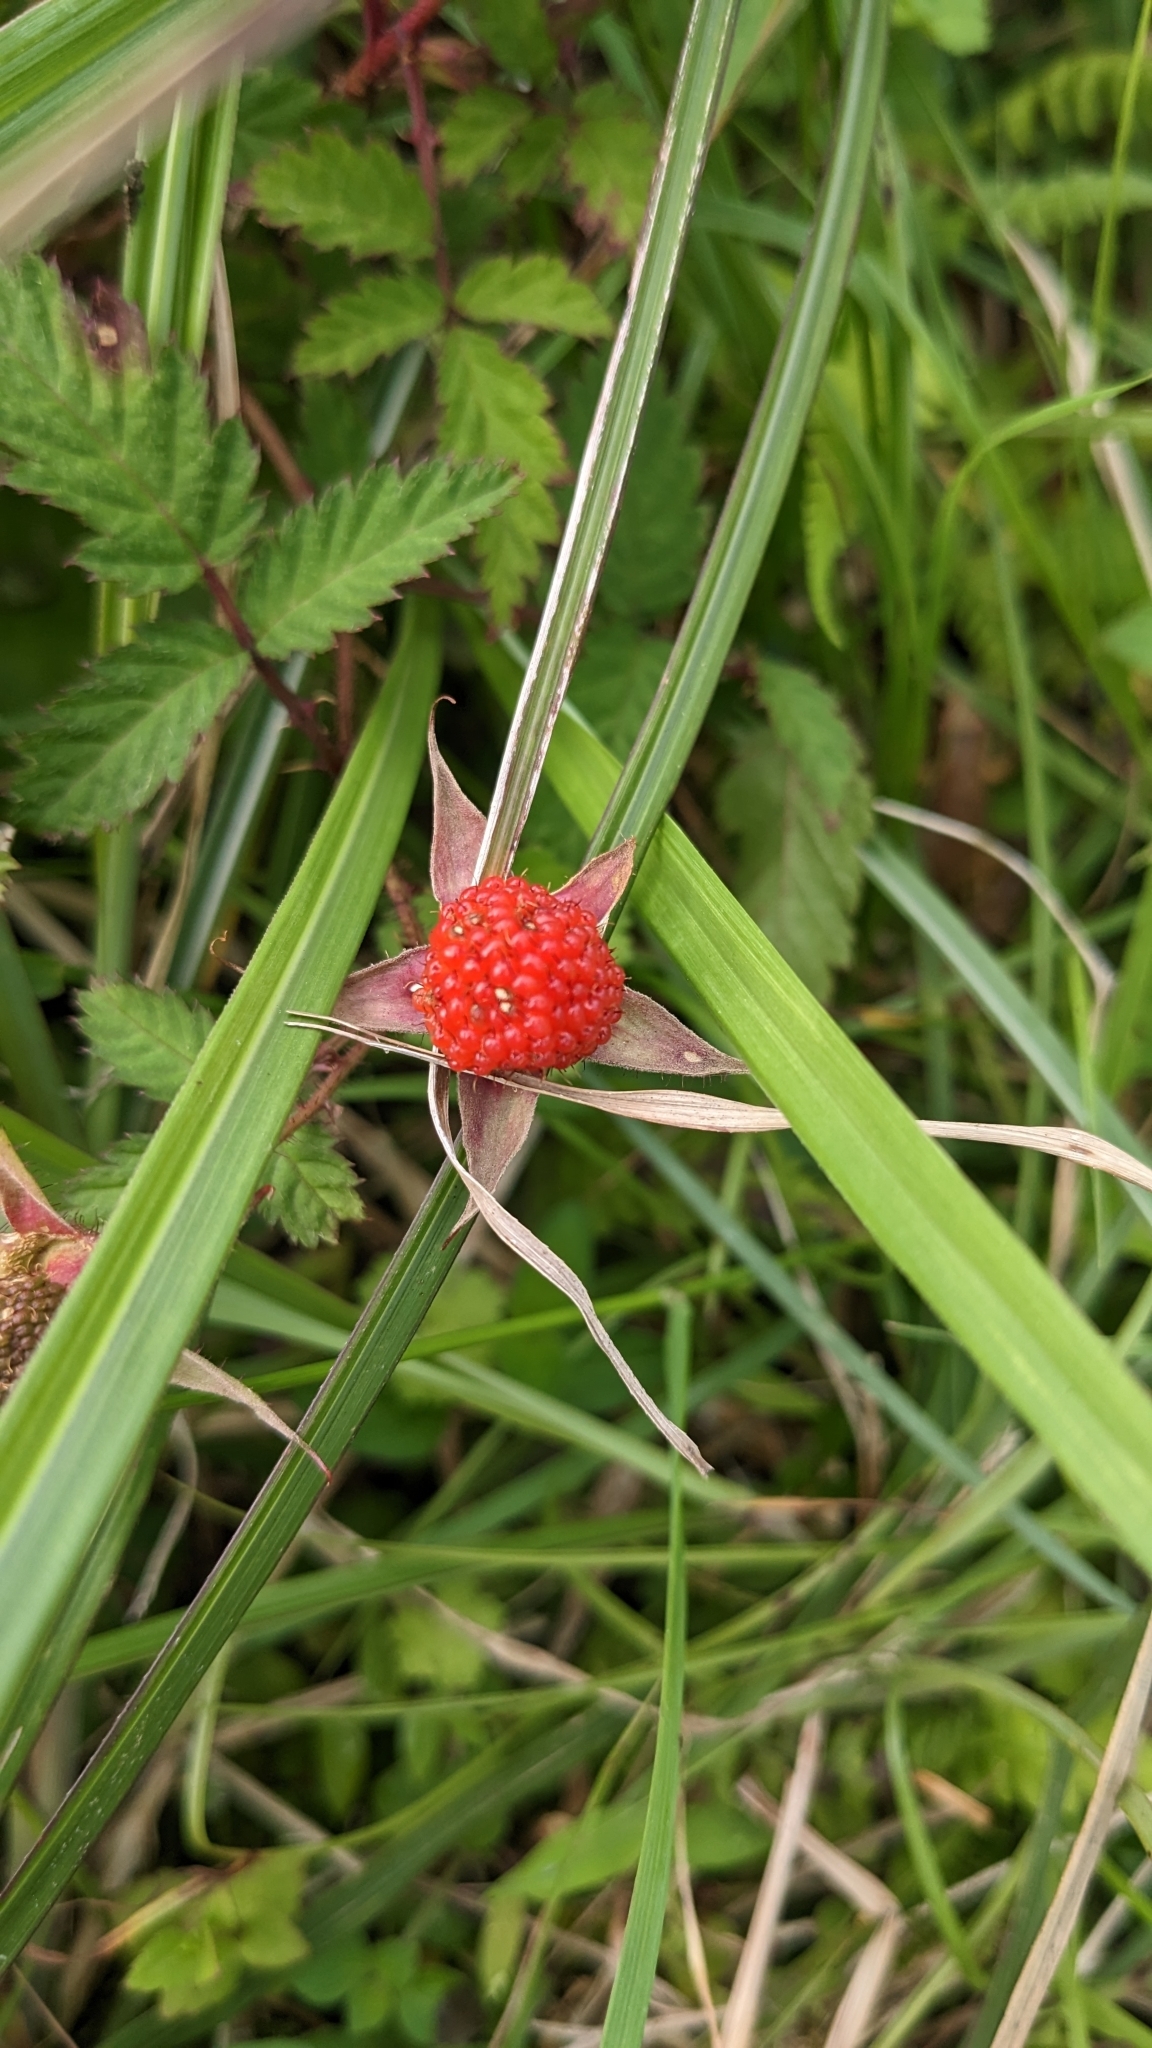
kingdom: Plantae
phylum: Tracheophyta
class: Magnoliopsida
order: Rosales
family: Rosaceae
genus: Rubus
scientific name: Rubus croceacanthus
